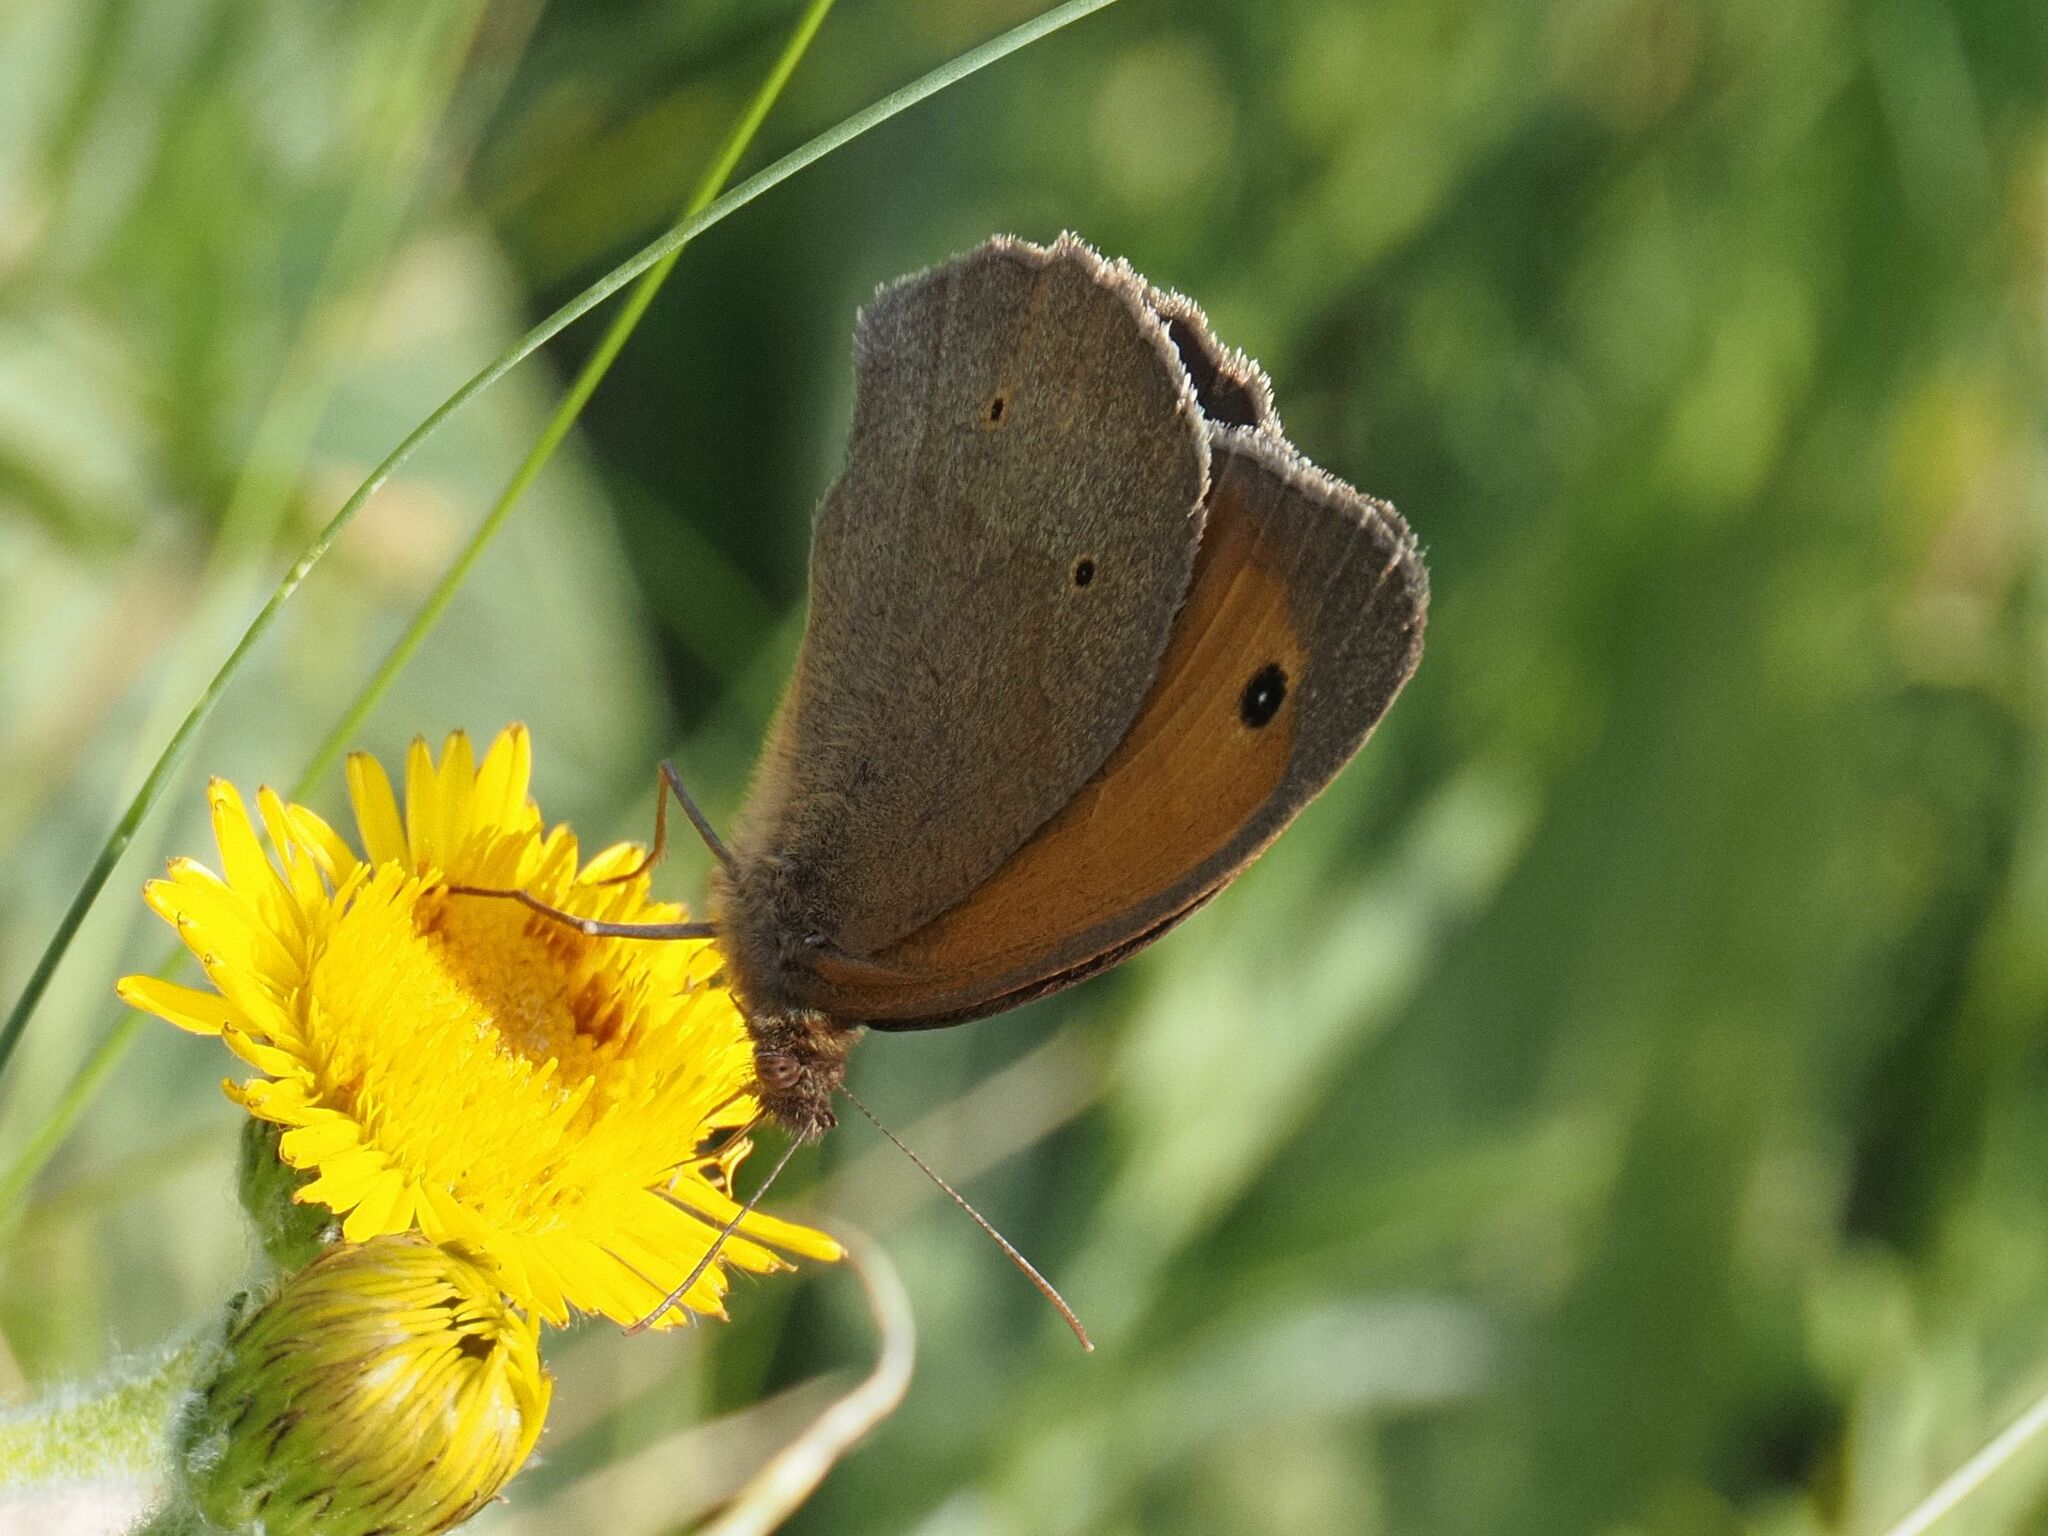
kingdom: Animalia
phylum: Arthropoda
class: Insecta
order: Lepidoptera
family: Nymphalidae
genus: Maniola
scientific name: Maniola jurtina
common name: Meadow brown
